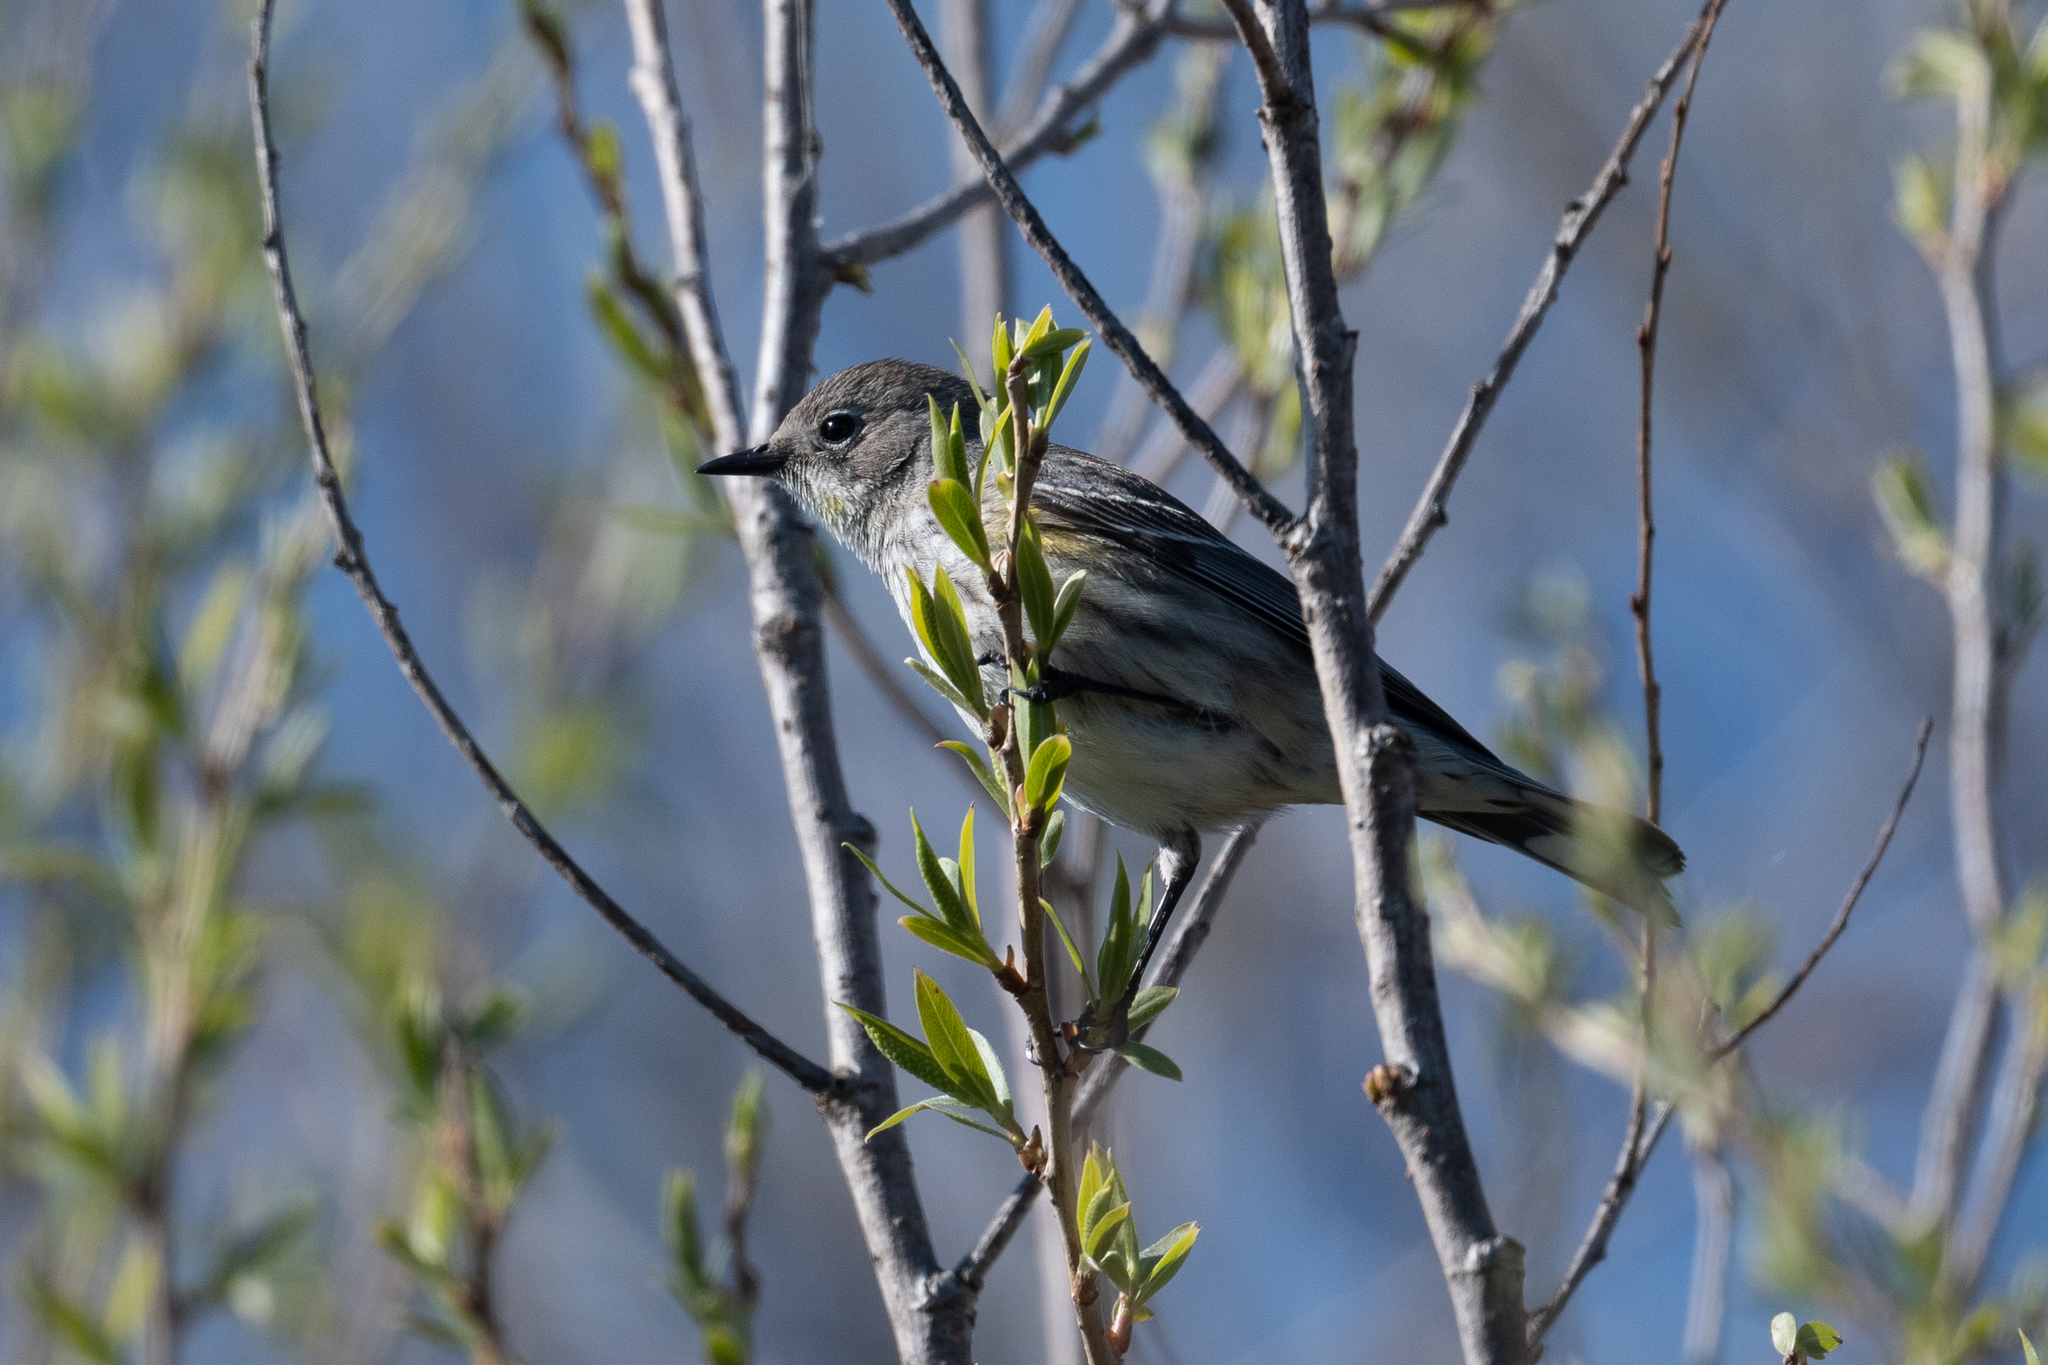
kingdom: Animalia
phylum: Chordata
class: Aves
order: Passeriformes
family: Parulidae
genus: Setophaga
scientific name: Setophaga coronata
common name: Myrtle warbler
